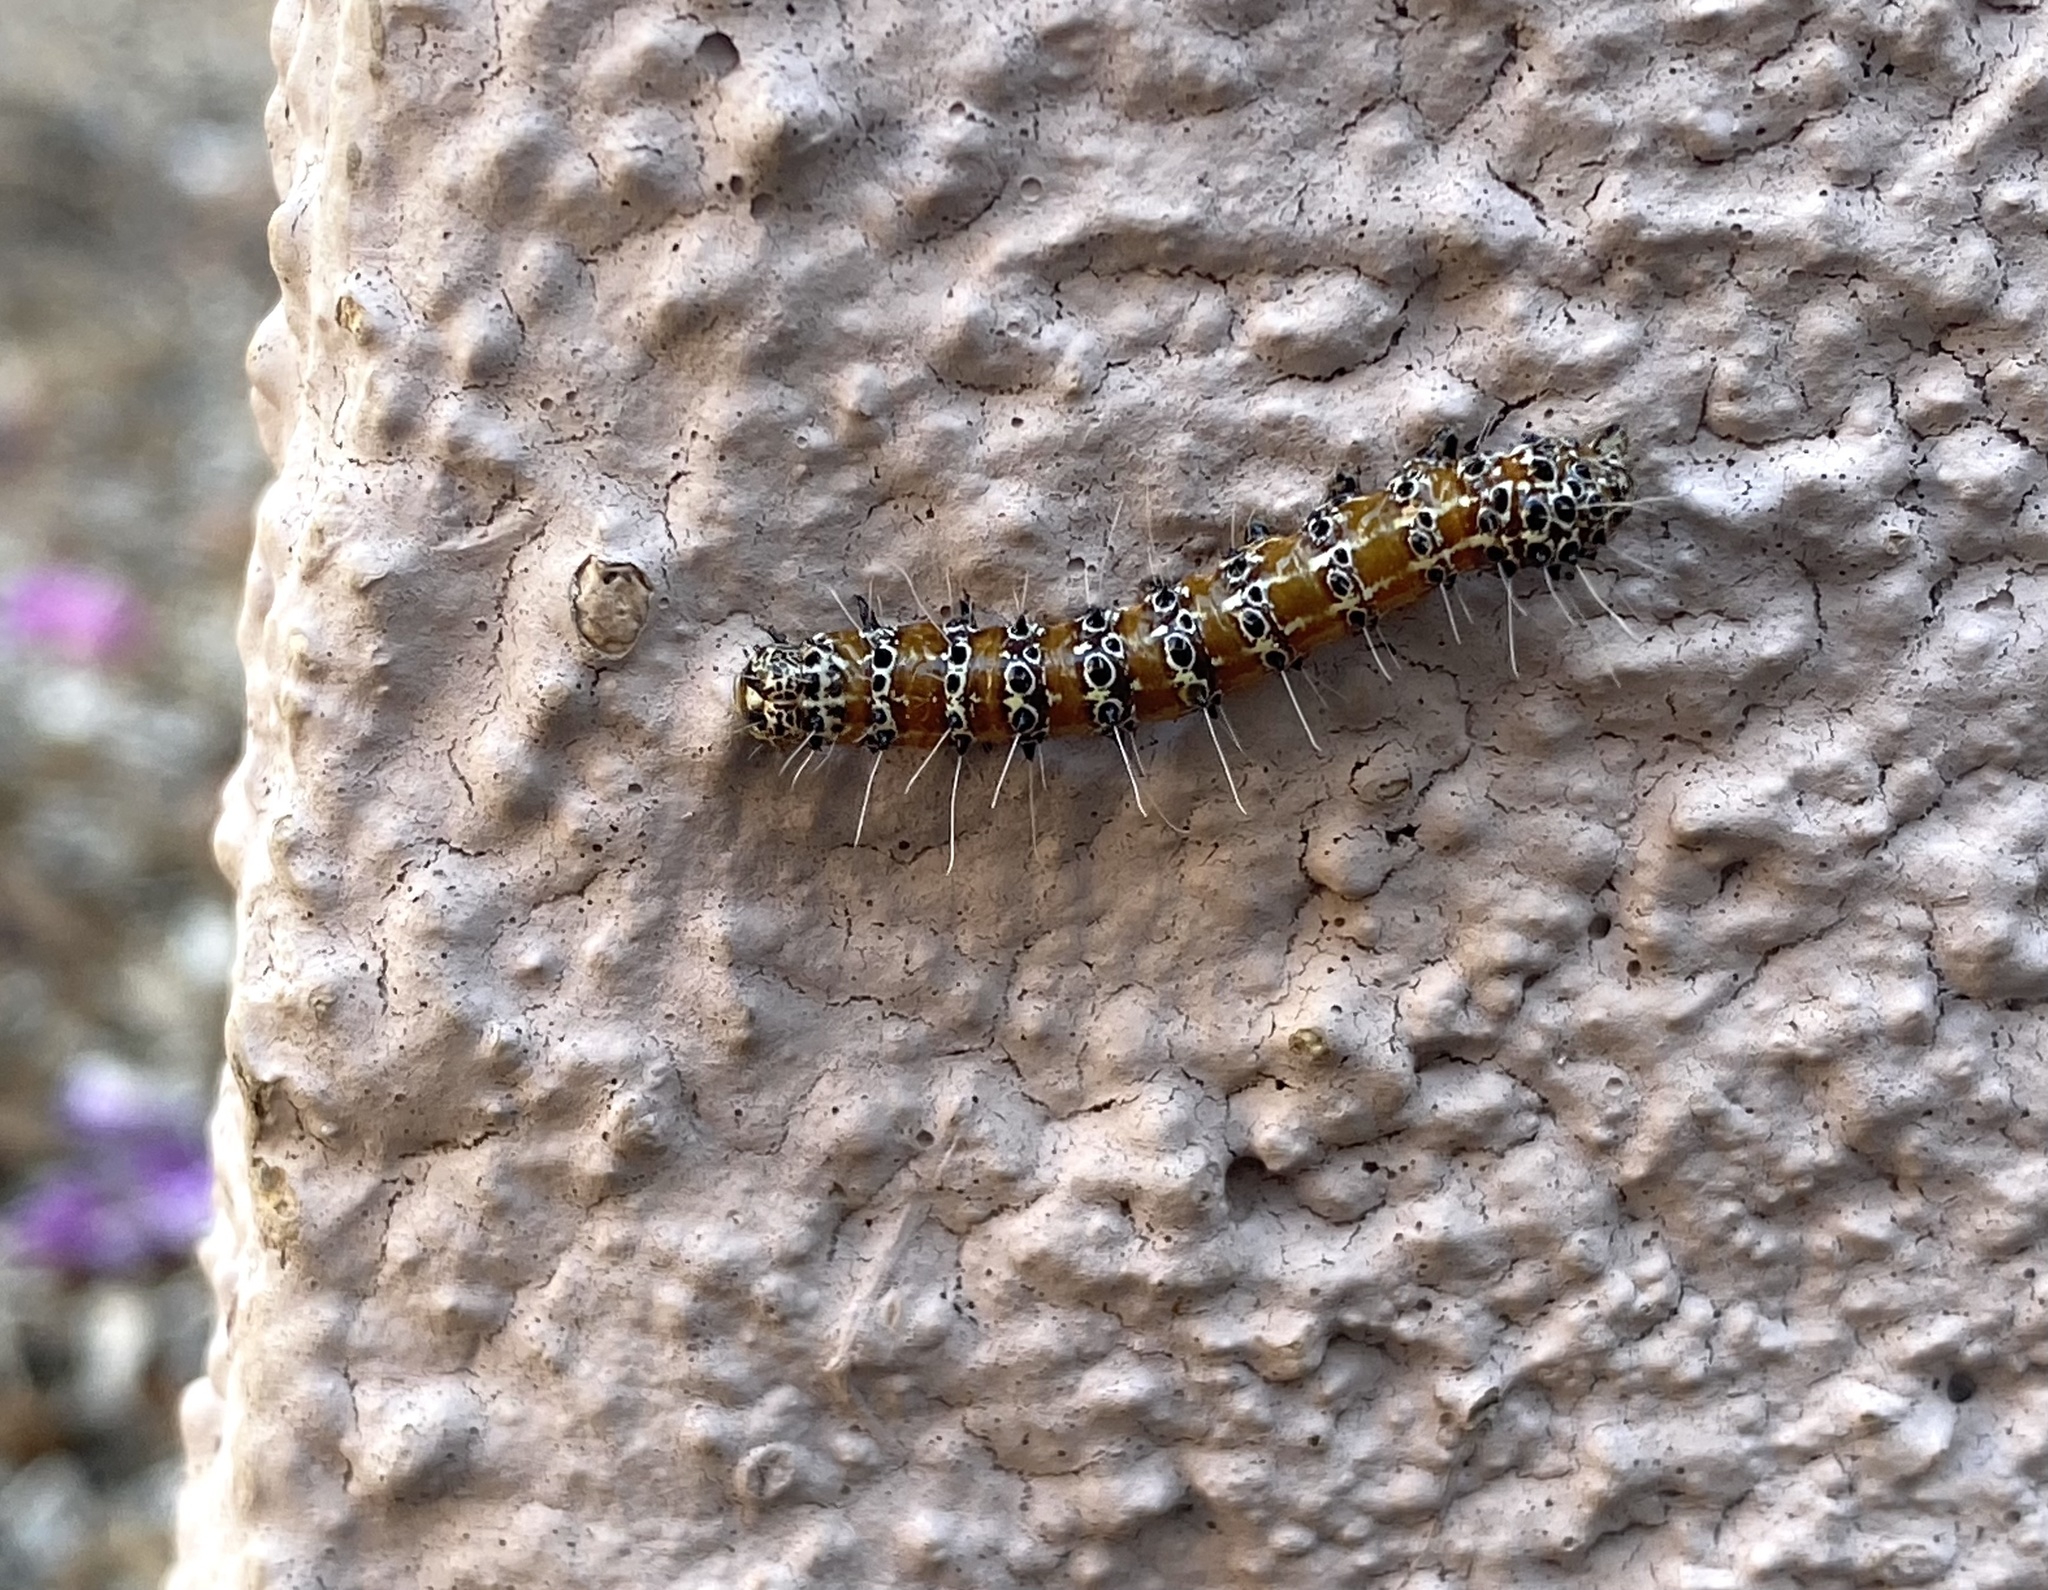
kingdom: Animalia
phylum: Arthropoda
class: Insecta
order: Lepidoptera
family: Noctuidae
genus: Euscirrhopterus
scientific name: Euscirrhopterus cosyra
